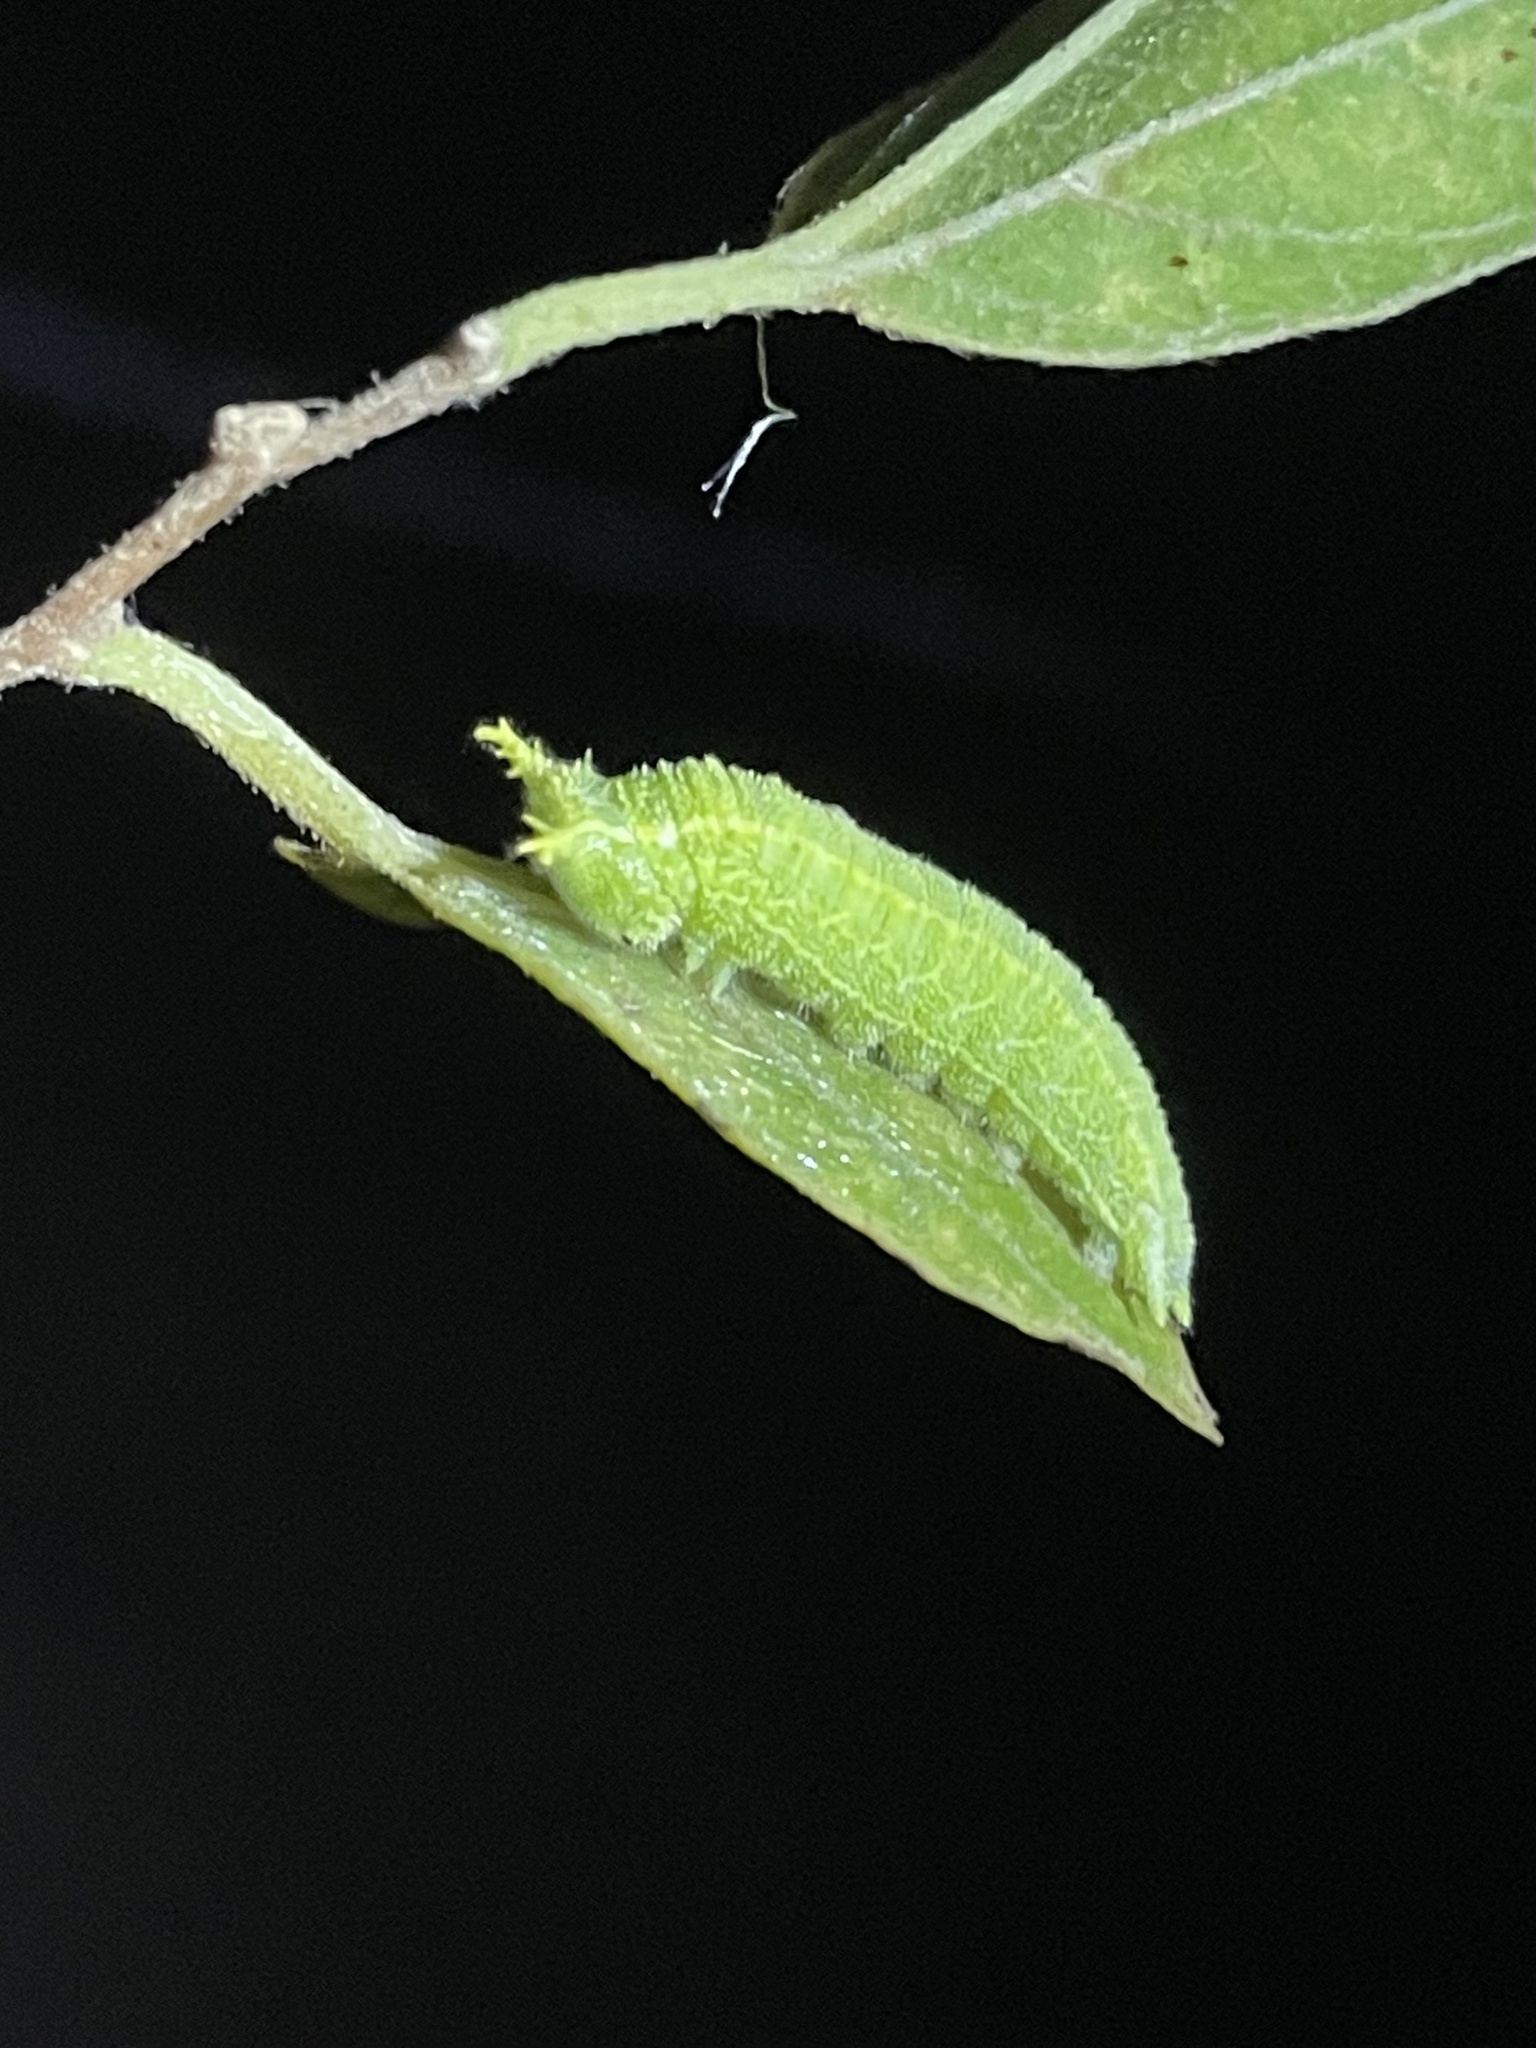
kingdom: Animalia
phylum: Arthropoda
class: Insecta
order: Lepidoptera
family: Nymphalidae
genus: Asterocampa
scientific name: Asterocampa celtis
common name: Hackberry emperor
